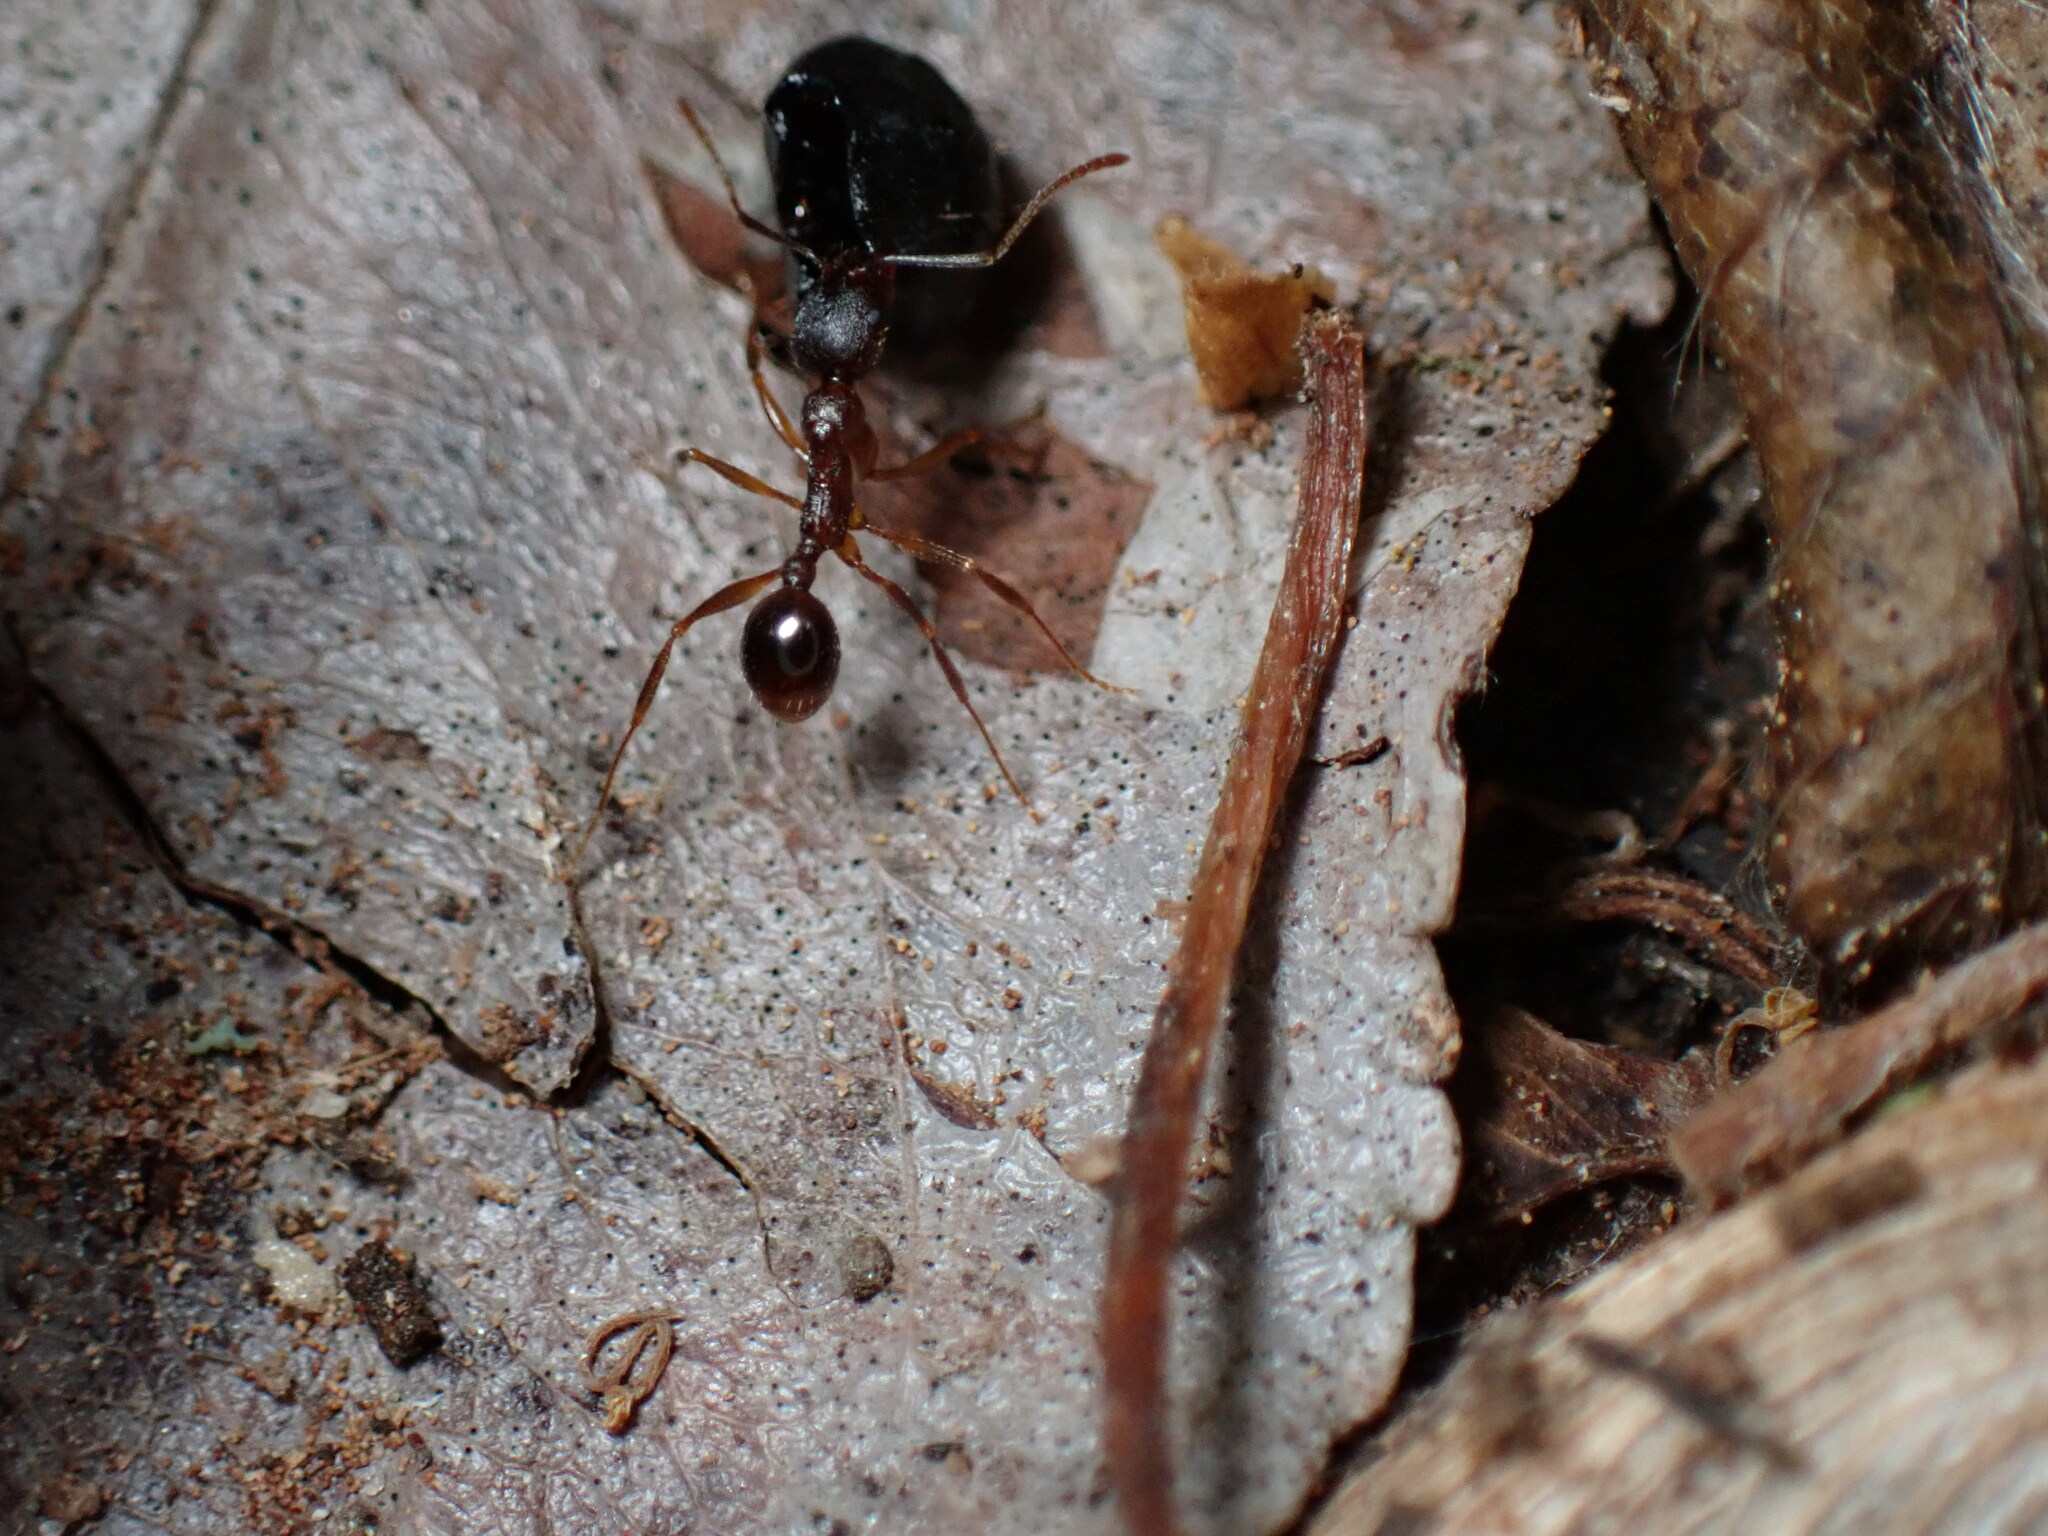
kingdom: Animalia
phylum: Arthropoda
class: Insecta
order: Hymenoptera
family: Formicidae
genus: Aphaenogaster
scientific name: Aphaenogaster rudis
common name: Winnow ant
